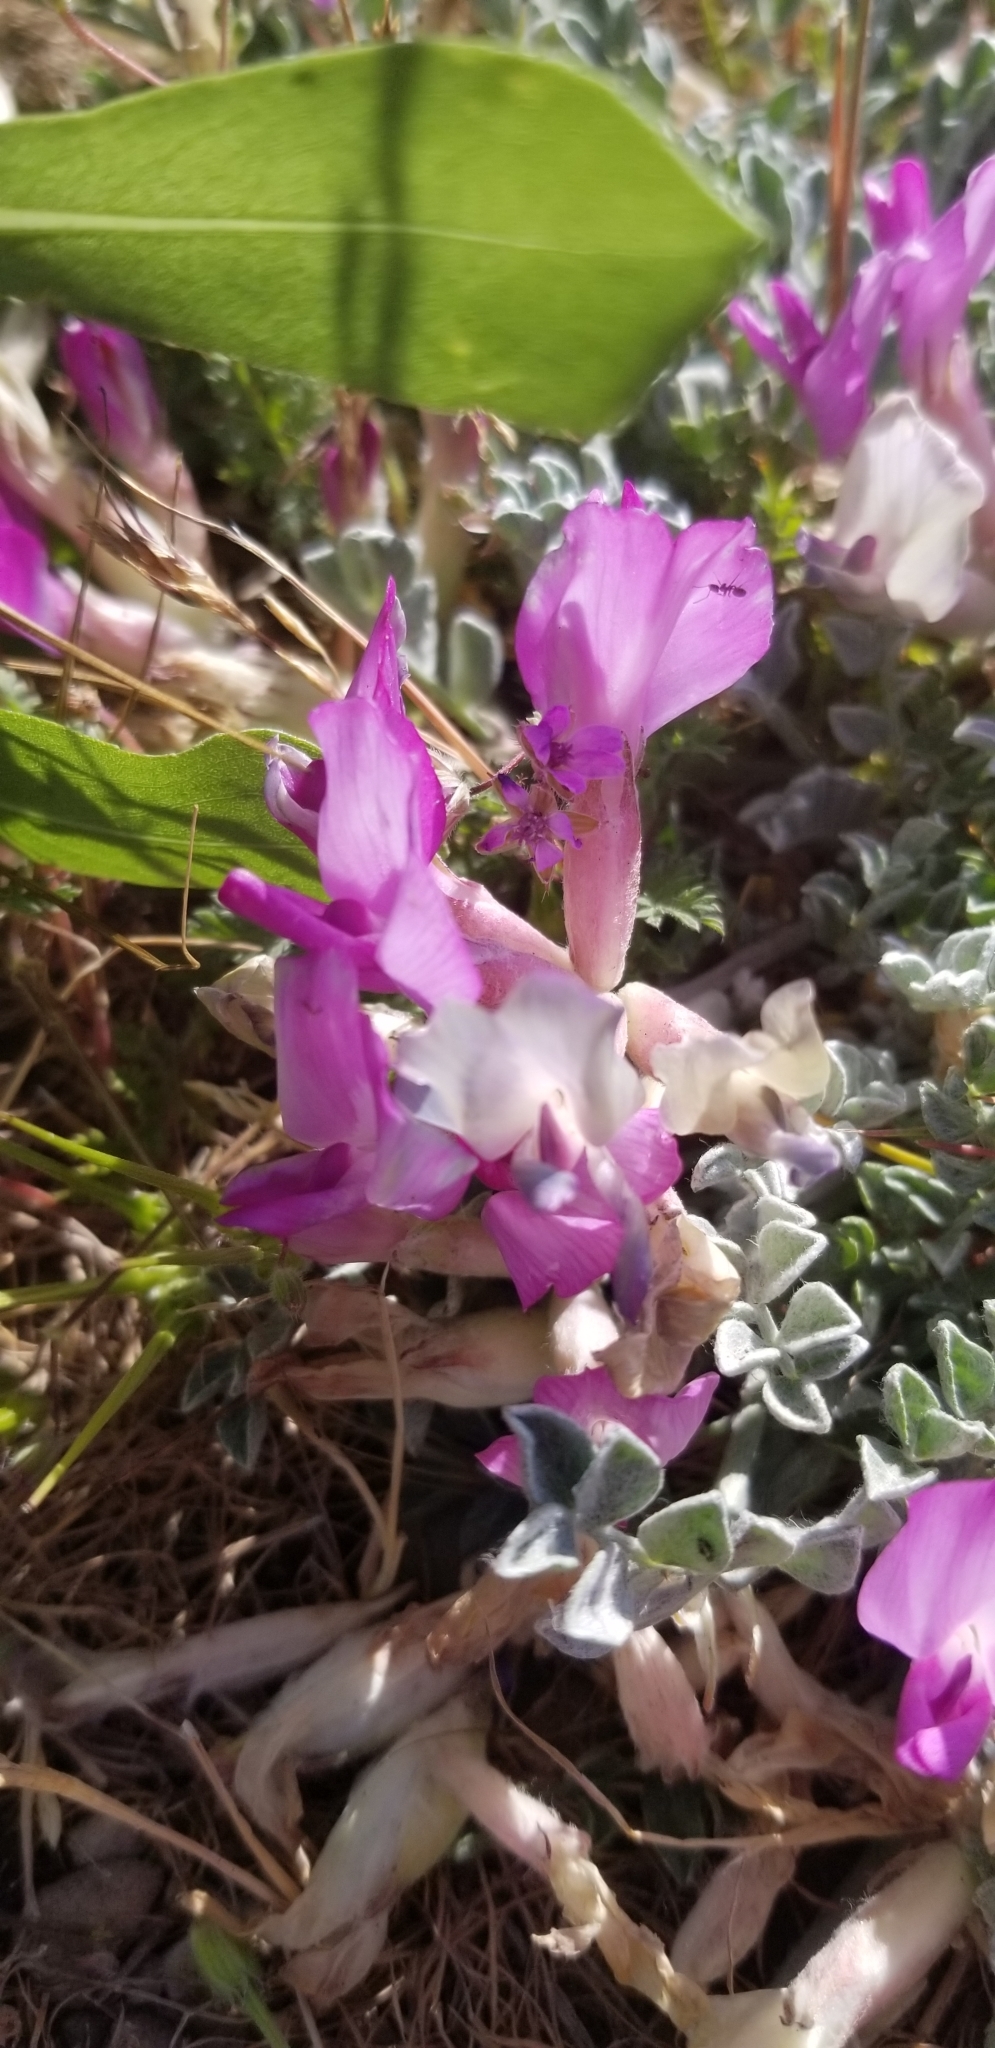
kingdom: Plantae
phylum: Tracheophyta
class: Magnoliopsida
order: Fabales
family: Fabaceae
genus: Astragalus
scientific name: Astragalus utahensis
